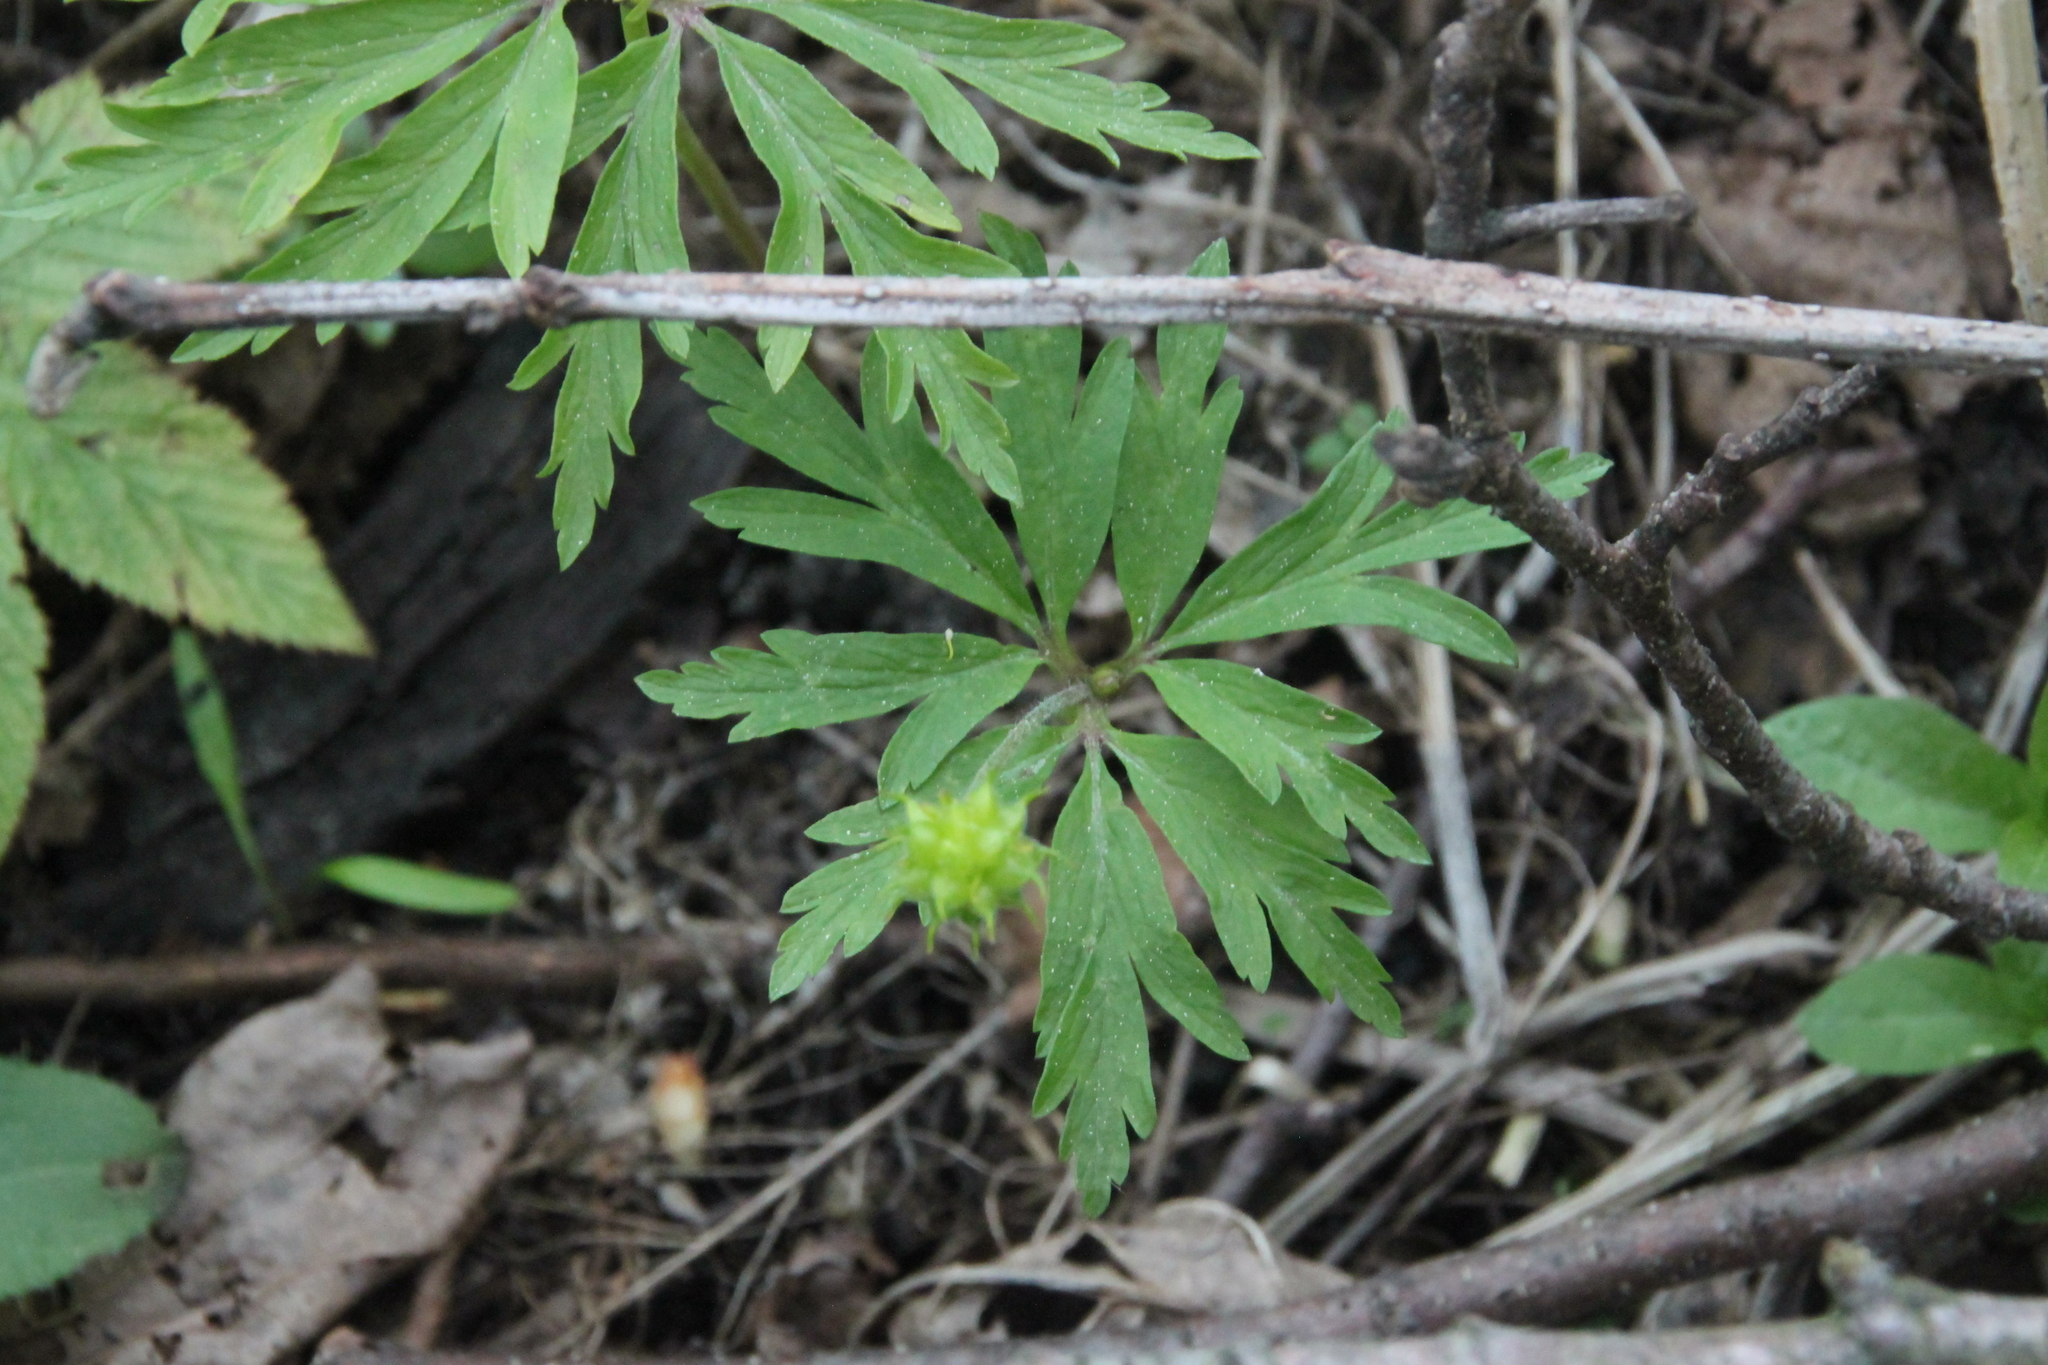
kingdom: Plantae
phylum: Tracheophyta
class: Magnoliopsida
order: Ranunculales
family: Ranunculaceae
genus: Anemone
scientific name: Anemone ranunculoides
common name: Yellow anemone
